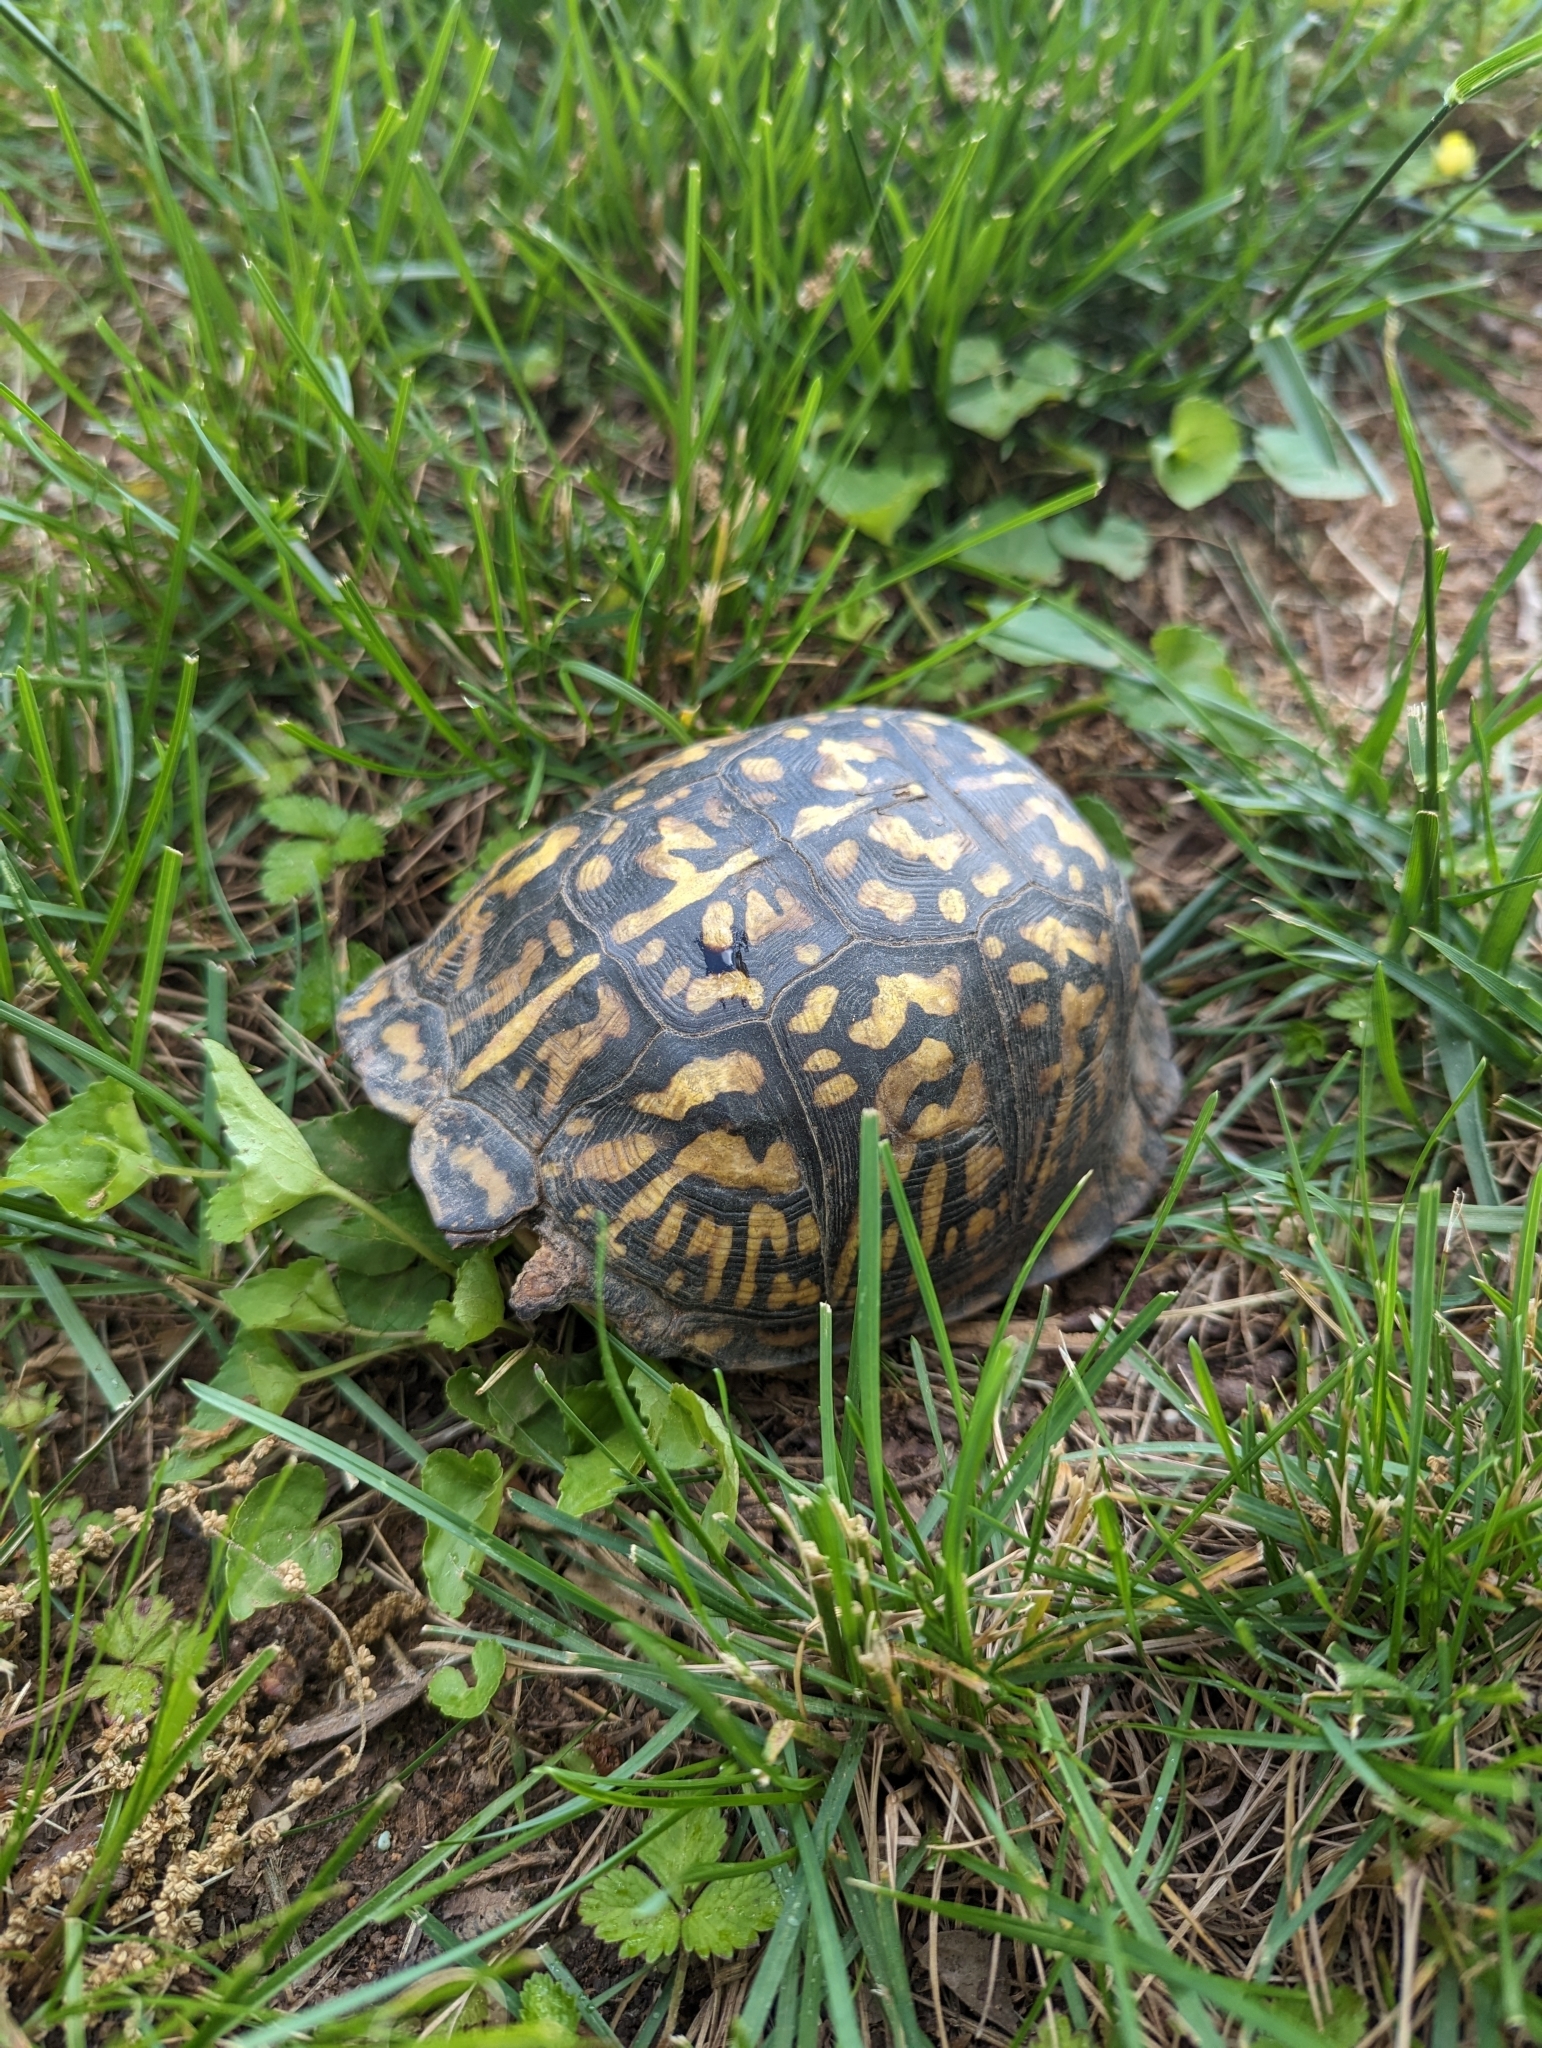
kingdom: Animalia
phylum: Chordata
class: Testudines
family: Emydidae
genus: Terrapene
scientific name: Terrapene carolina
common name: Common box turtle
